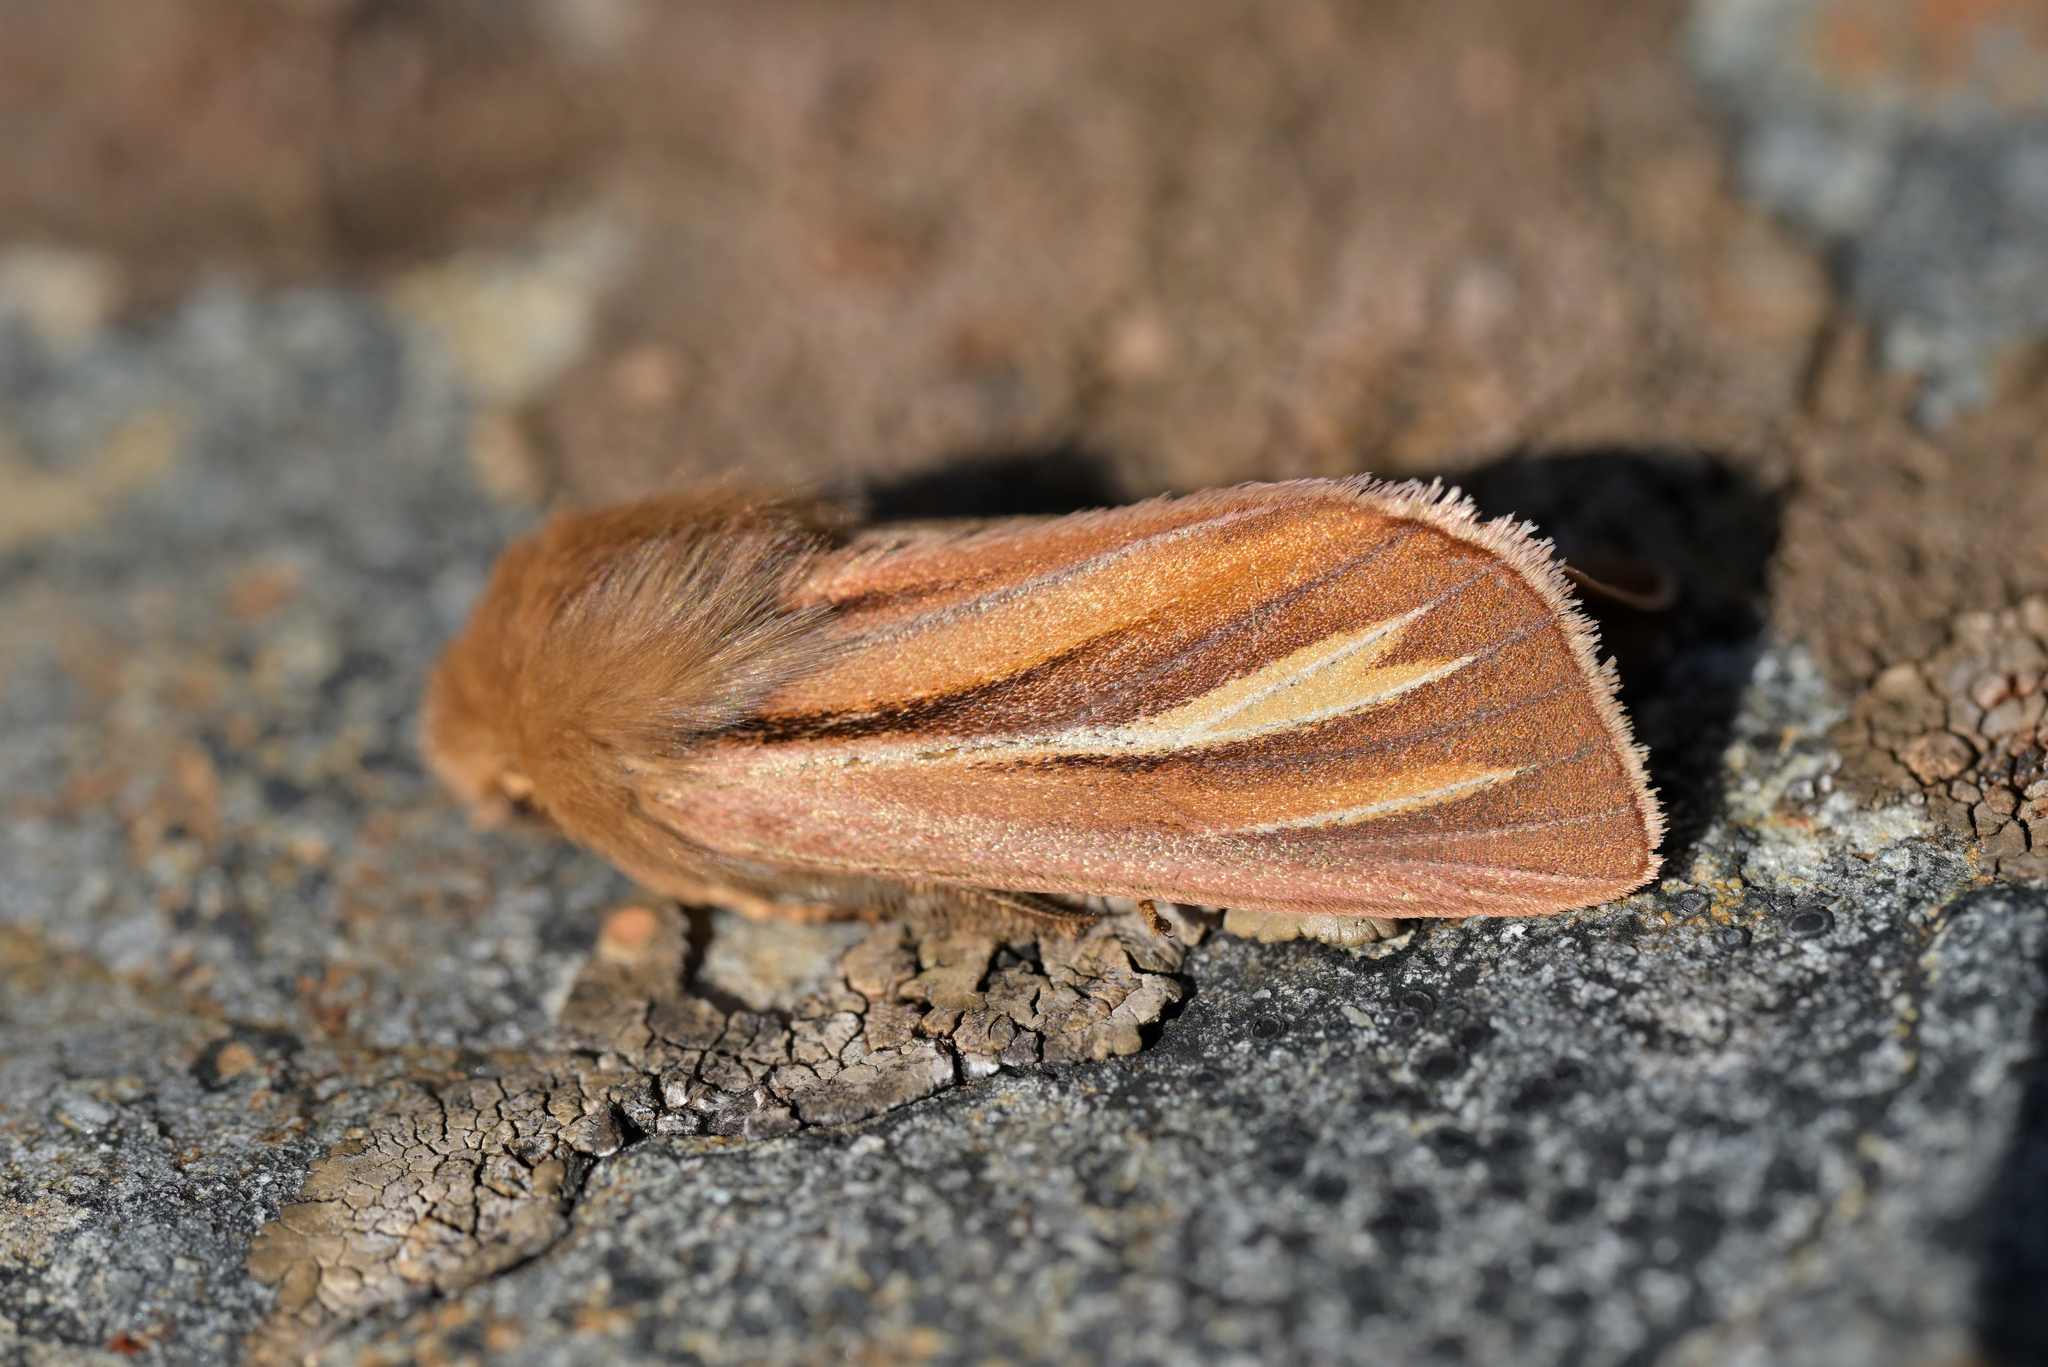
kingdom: Animalia
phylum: Arthropoda
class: Insecta
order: Lepidoptera
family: Noctuidae
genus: Ichneutica
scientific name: Ichneutica caraunias
